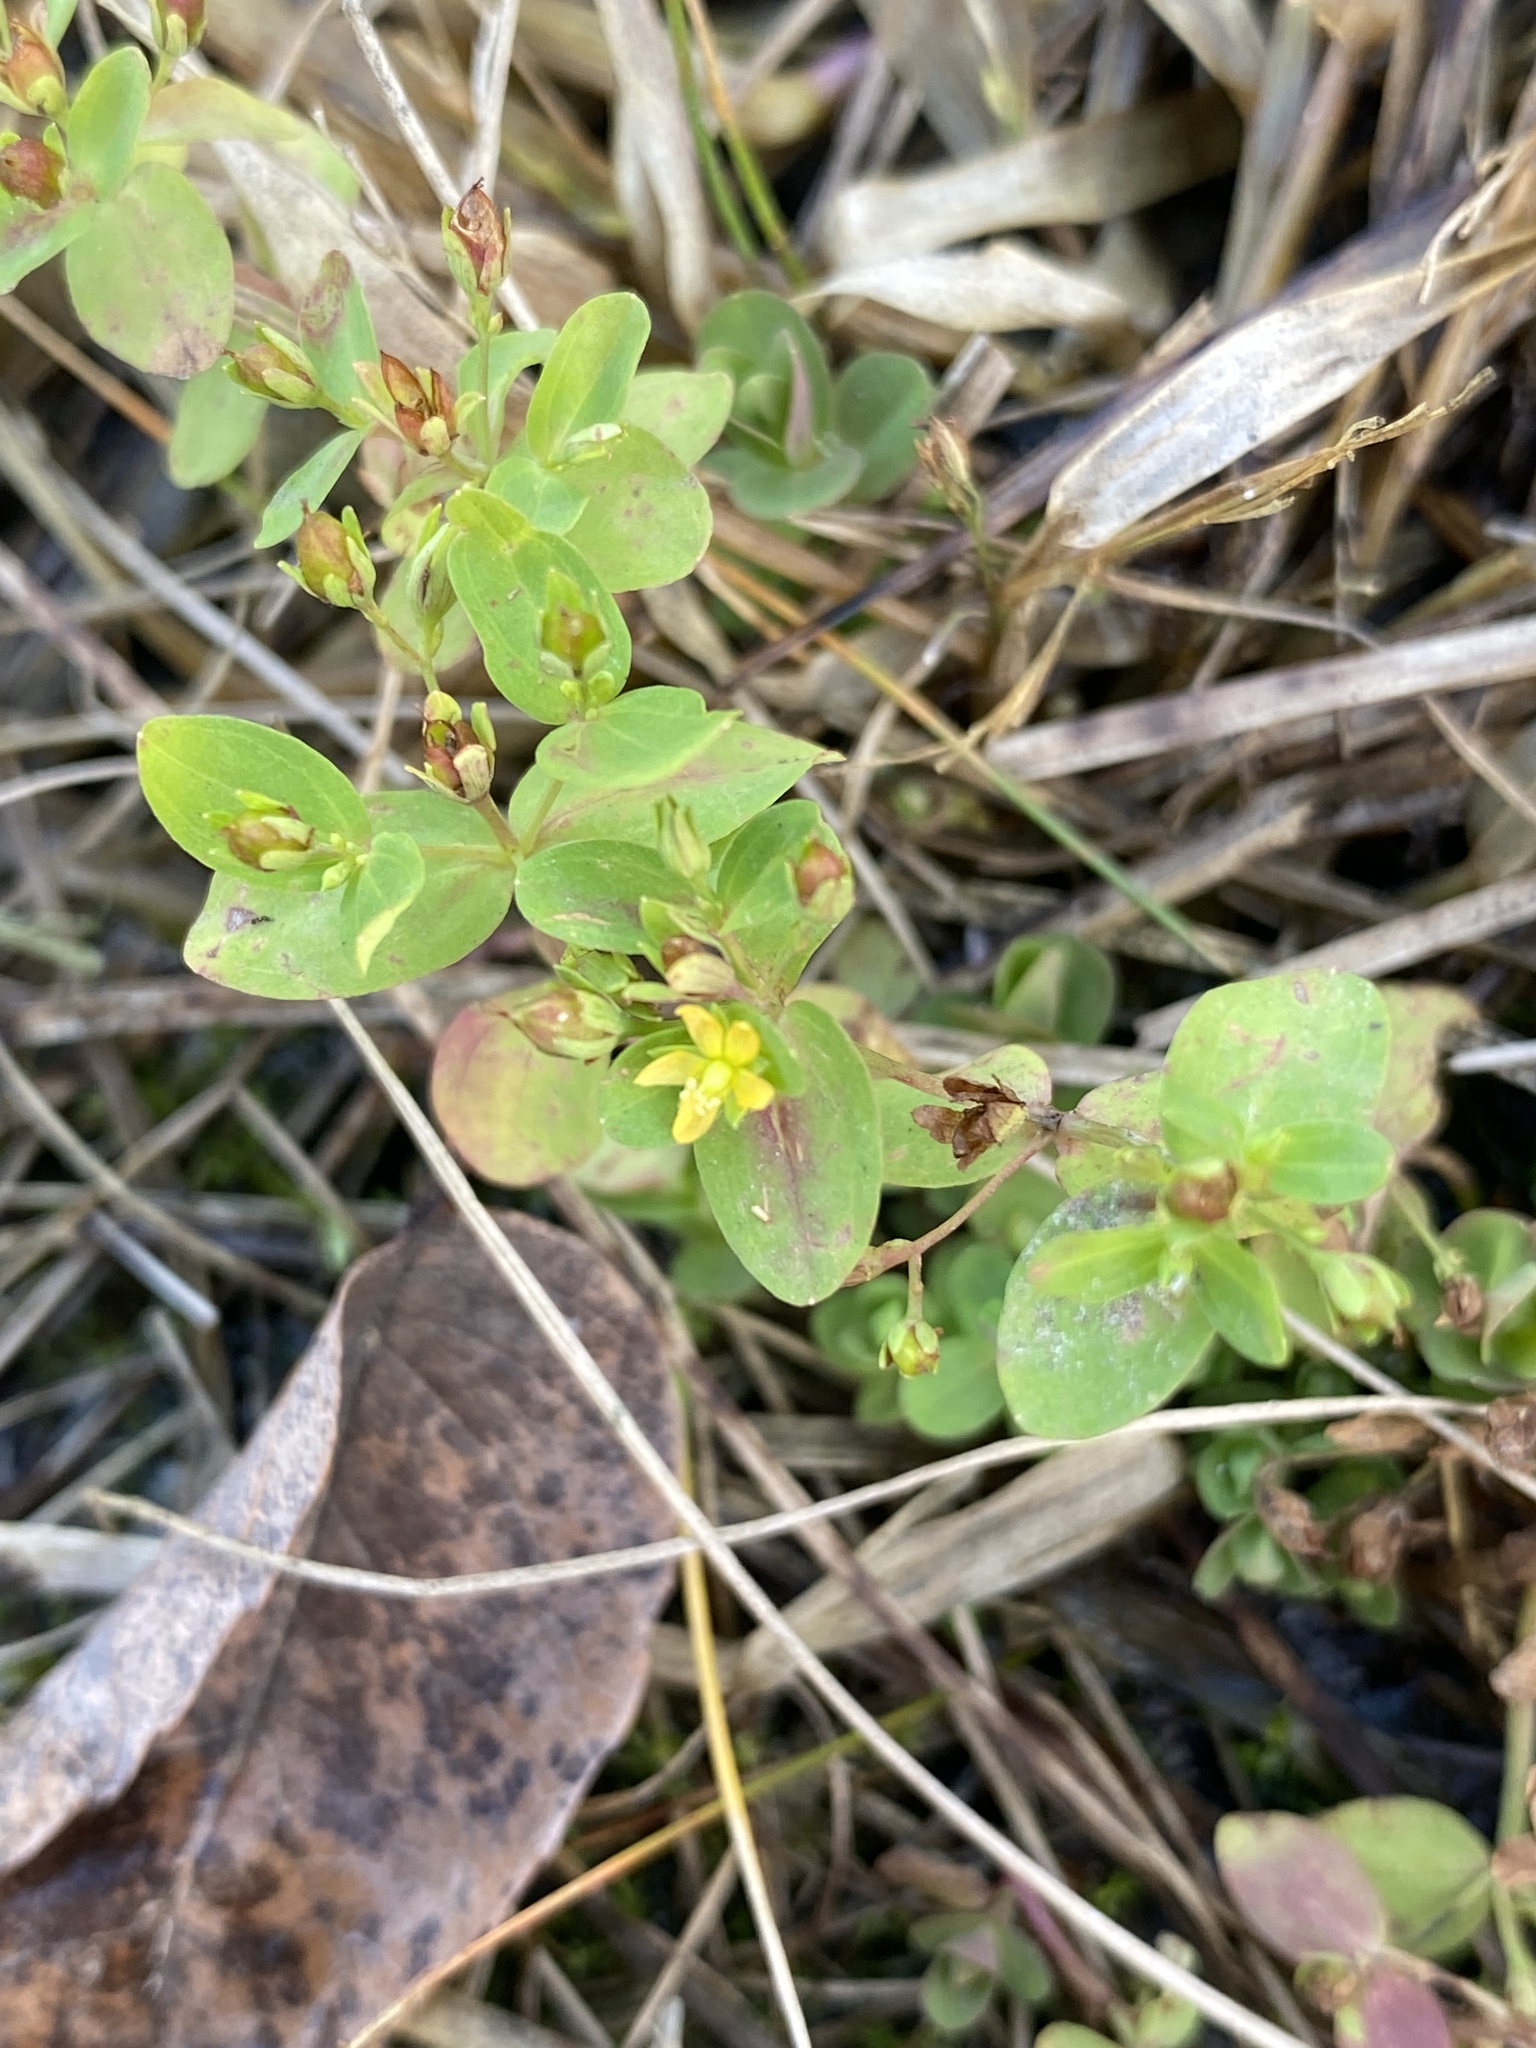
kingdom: Plantae
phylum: Tracheophyta
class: Magnoliopsida
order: Malpighiales
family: Hypericaceae
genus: Hypericum
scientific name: Hypericum mutilum
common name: Dwarf st. john's-wort
